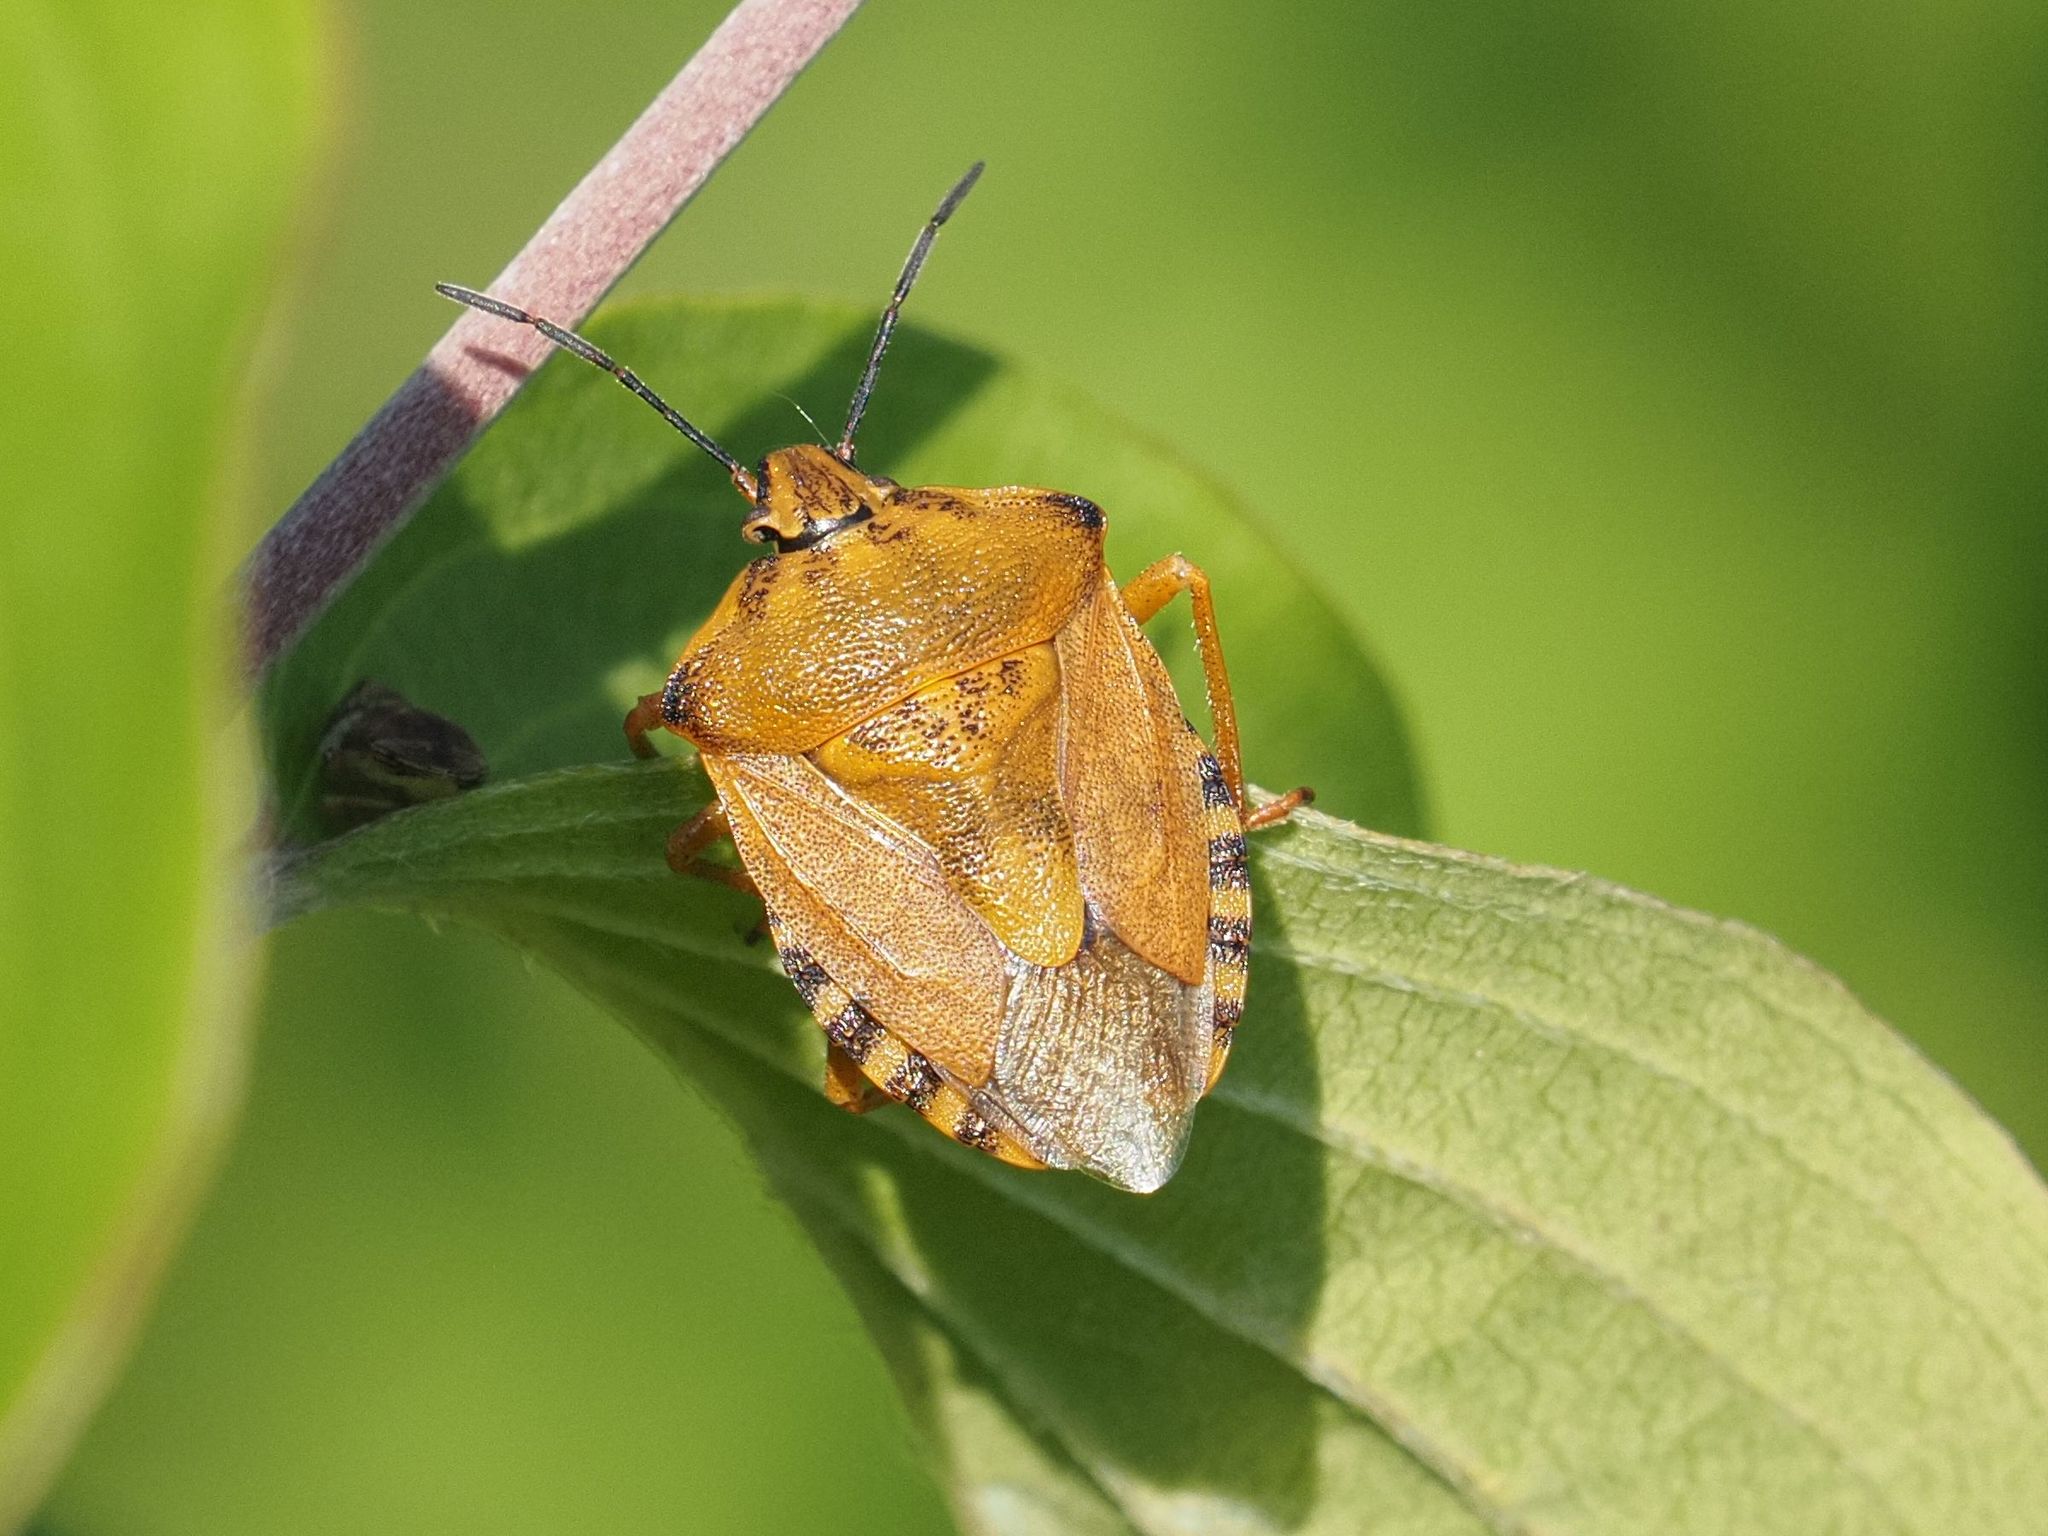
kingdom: Animalia
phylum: Arthropoda
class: Insecta
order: Hemiptera
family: Pentatomidae
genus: Carpocoris
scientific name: Carpocoris purpureipennis
